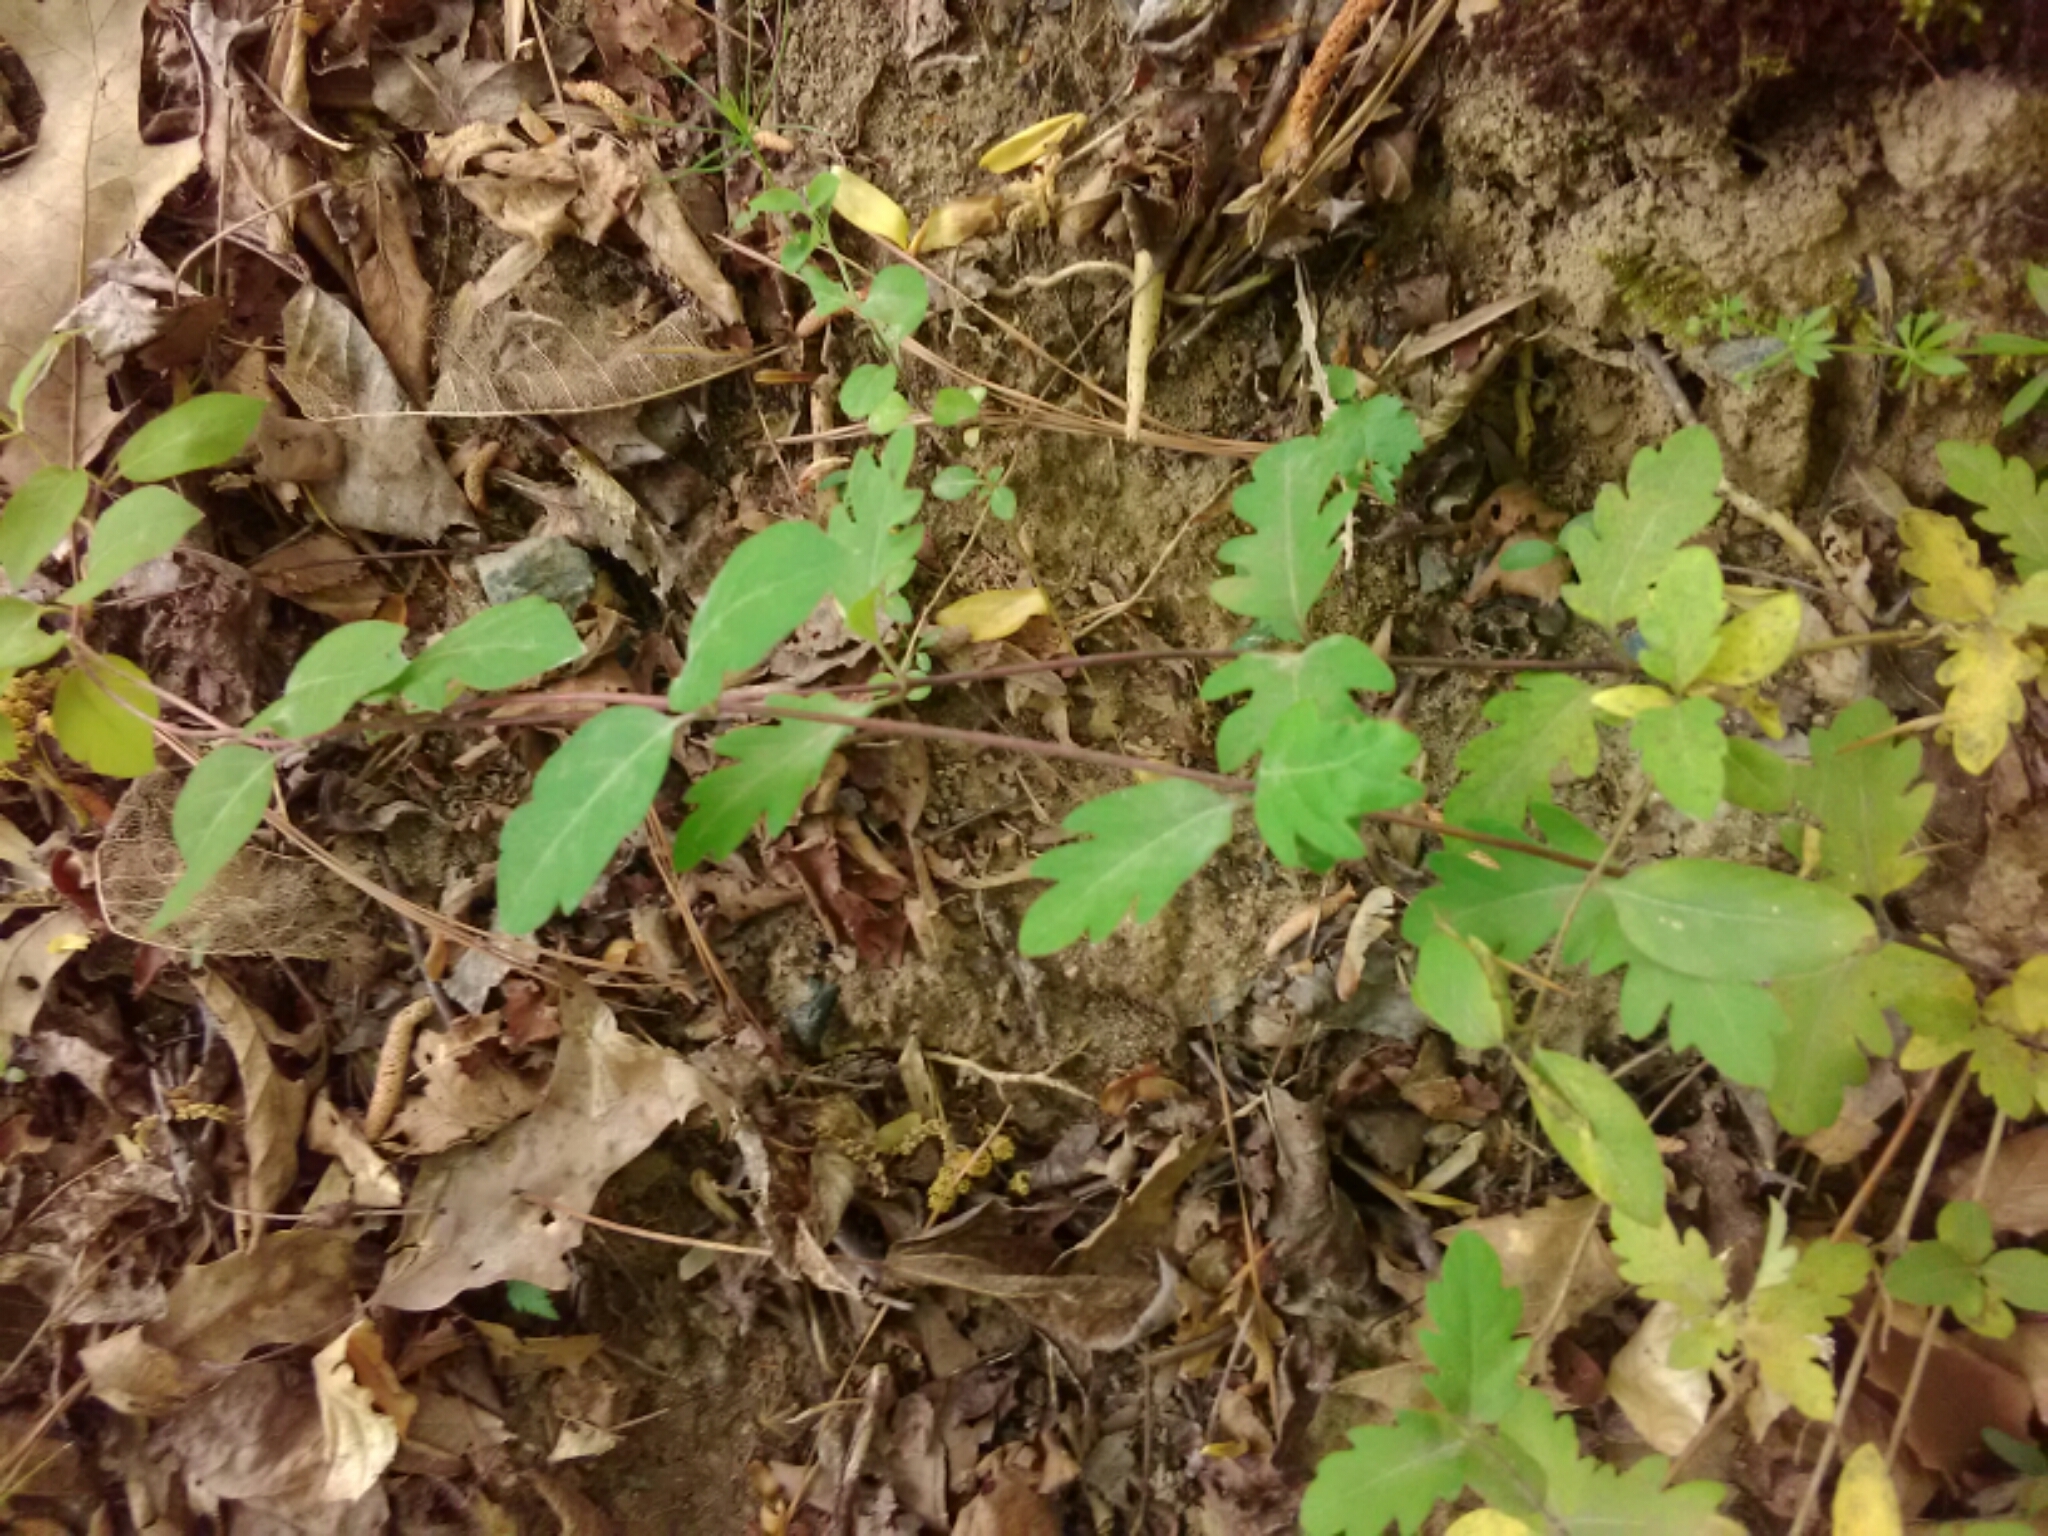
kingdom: Plantae
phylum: Tracheophyta
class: Magnoliopsida
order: Dipsacales
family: Caprifoliaceae
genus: Lonicera
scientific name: Lonicera japonica
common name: Japanese honeysuckle
